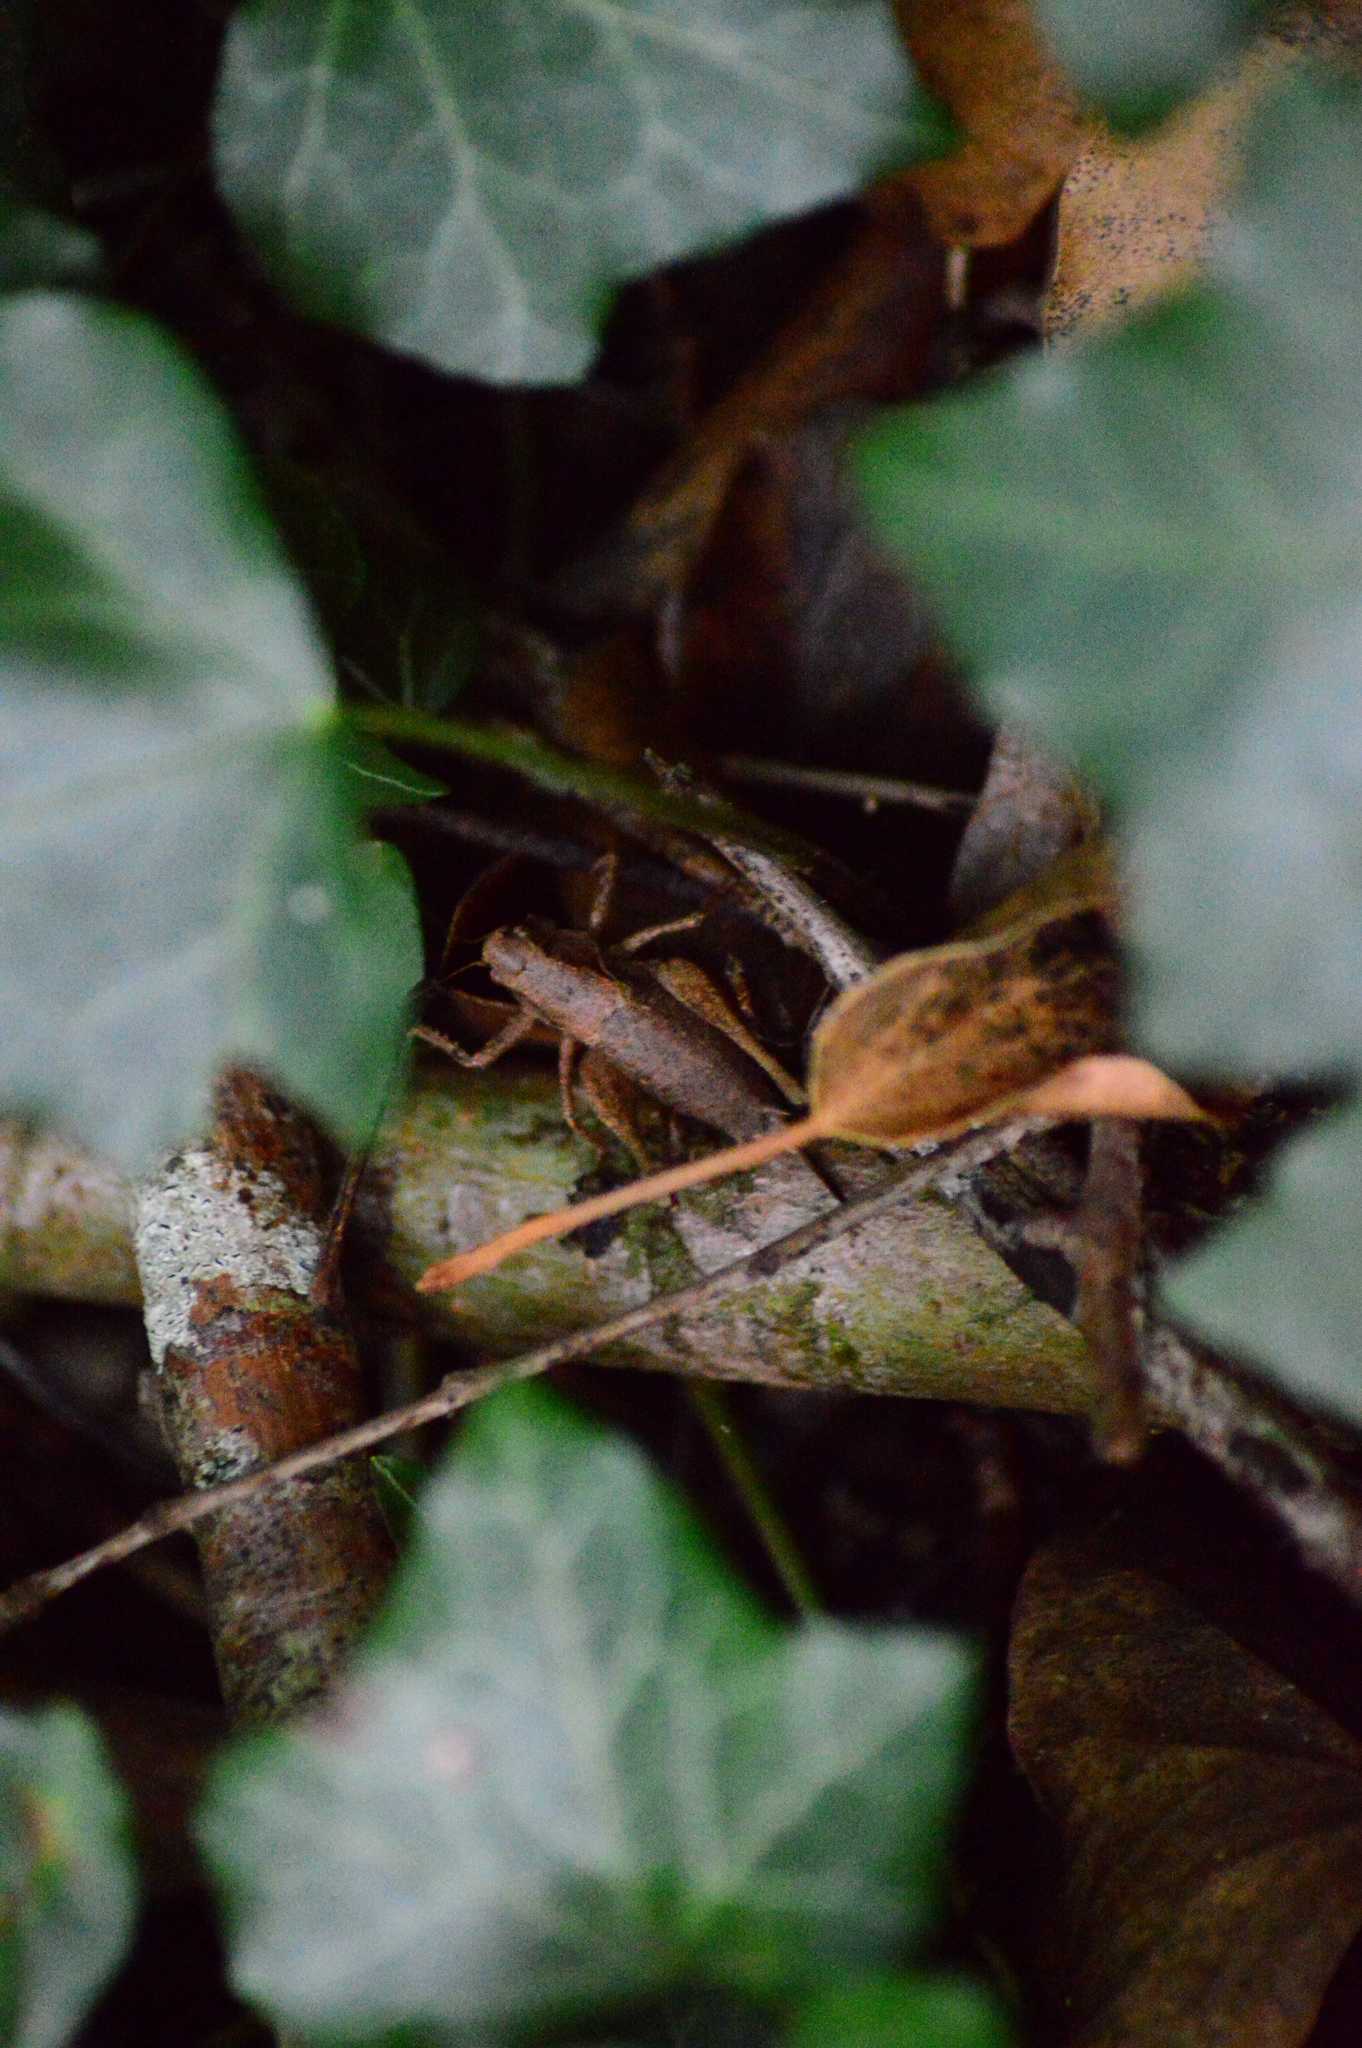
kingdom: Animalia
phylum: Arthropoda
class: Insecta
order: Orthoptera
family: Tettigoniidae
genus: Pholidoptera
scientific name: Pholidoptera griseoaptera
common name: Dark bush-cricket
